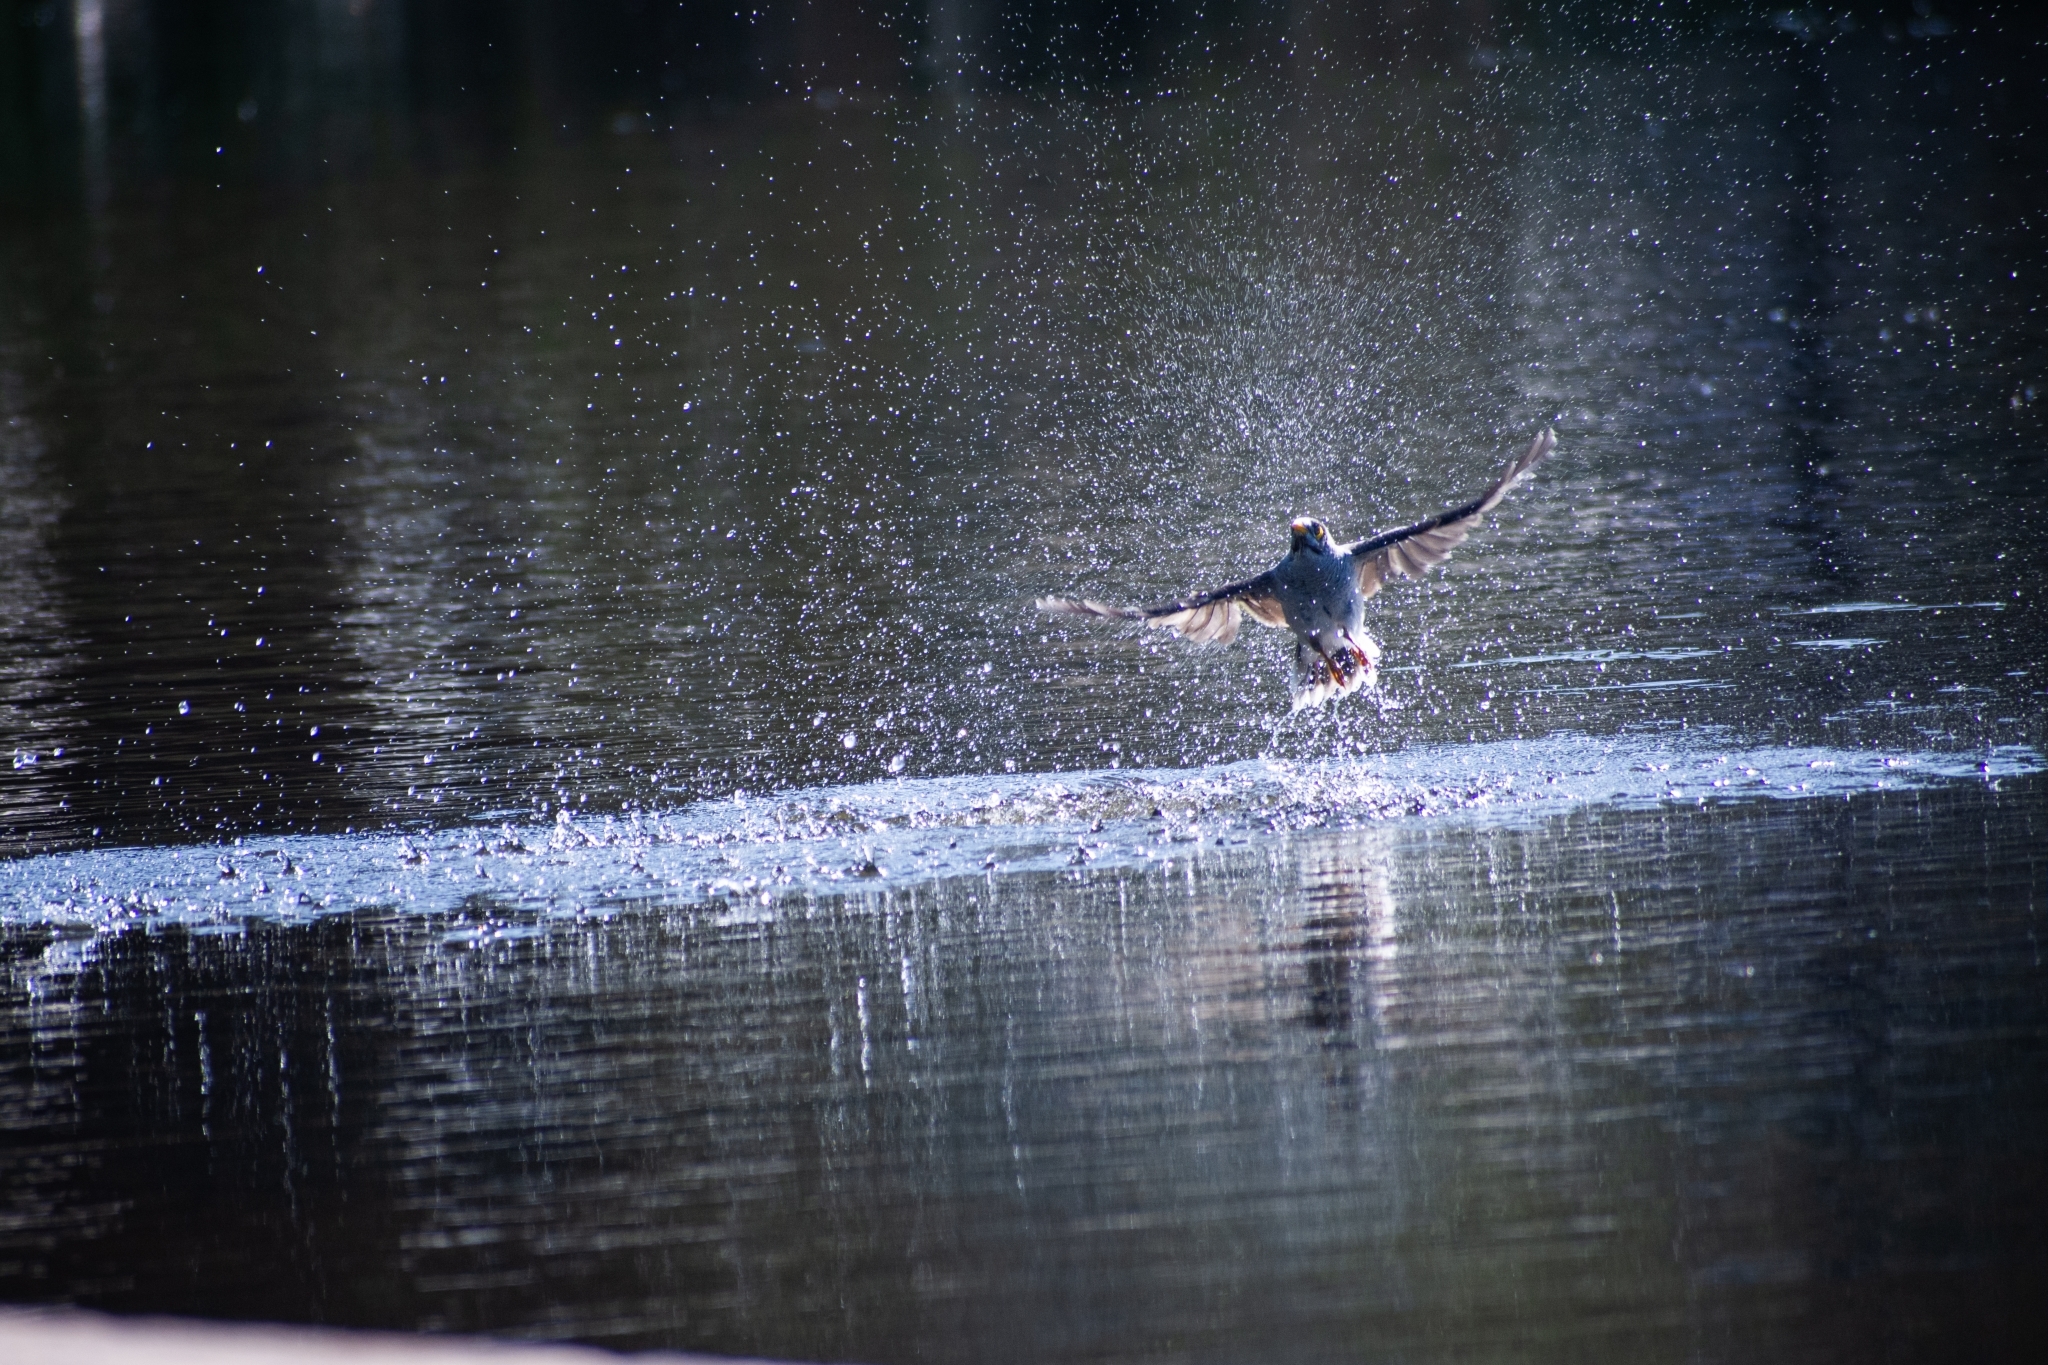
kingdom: Animalia
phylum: Chordata
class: Aves
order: Passeriformes
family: Meliphagidae
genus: Manorina
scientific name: Manorina melanocephala
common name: Noisy miner
